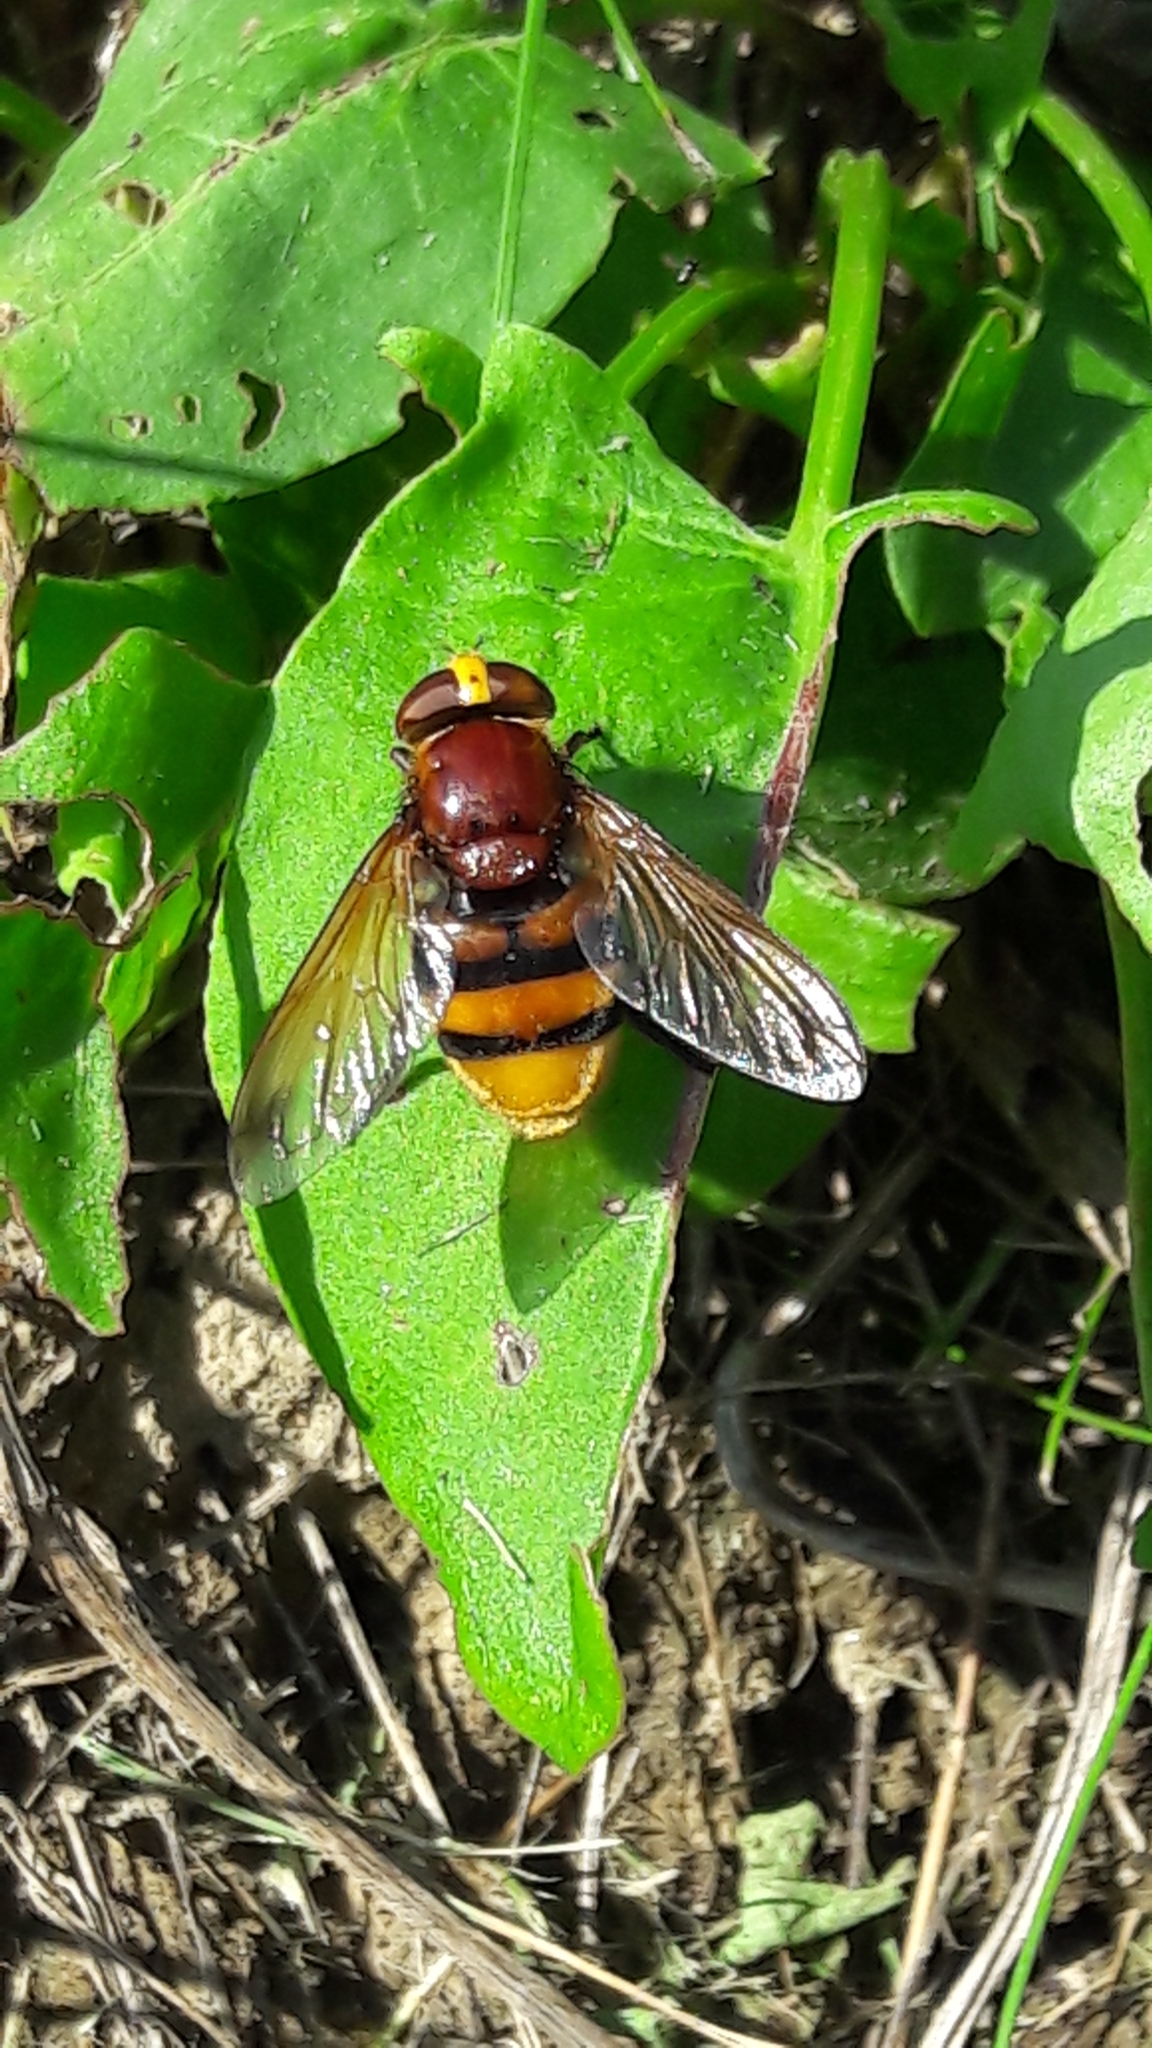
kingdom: Animalia
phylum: Arthropoda
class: Insecta
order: Diptera
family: Syrphidae
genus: Volucella
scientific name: Volucella zonaria
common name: Hornet hoverfly
